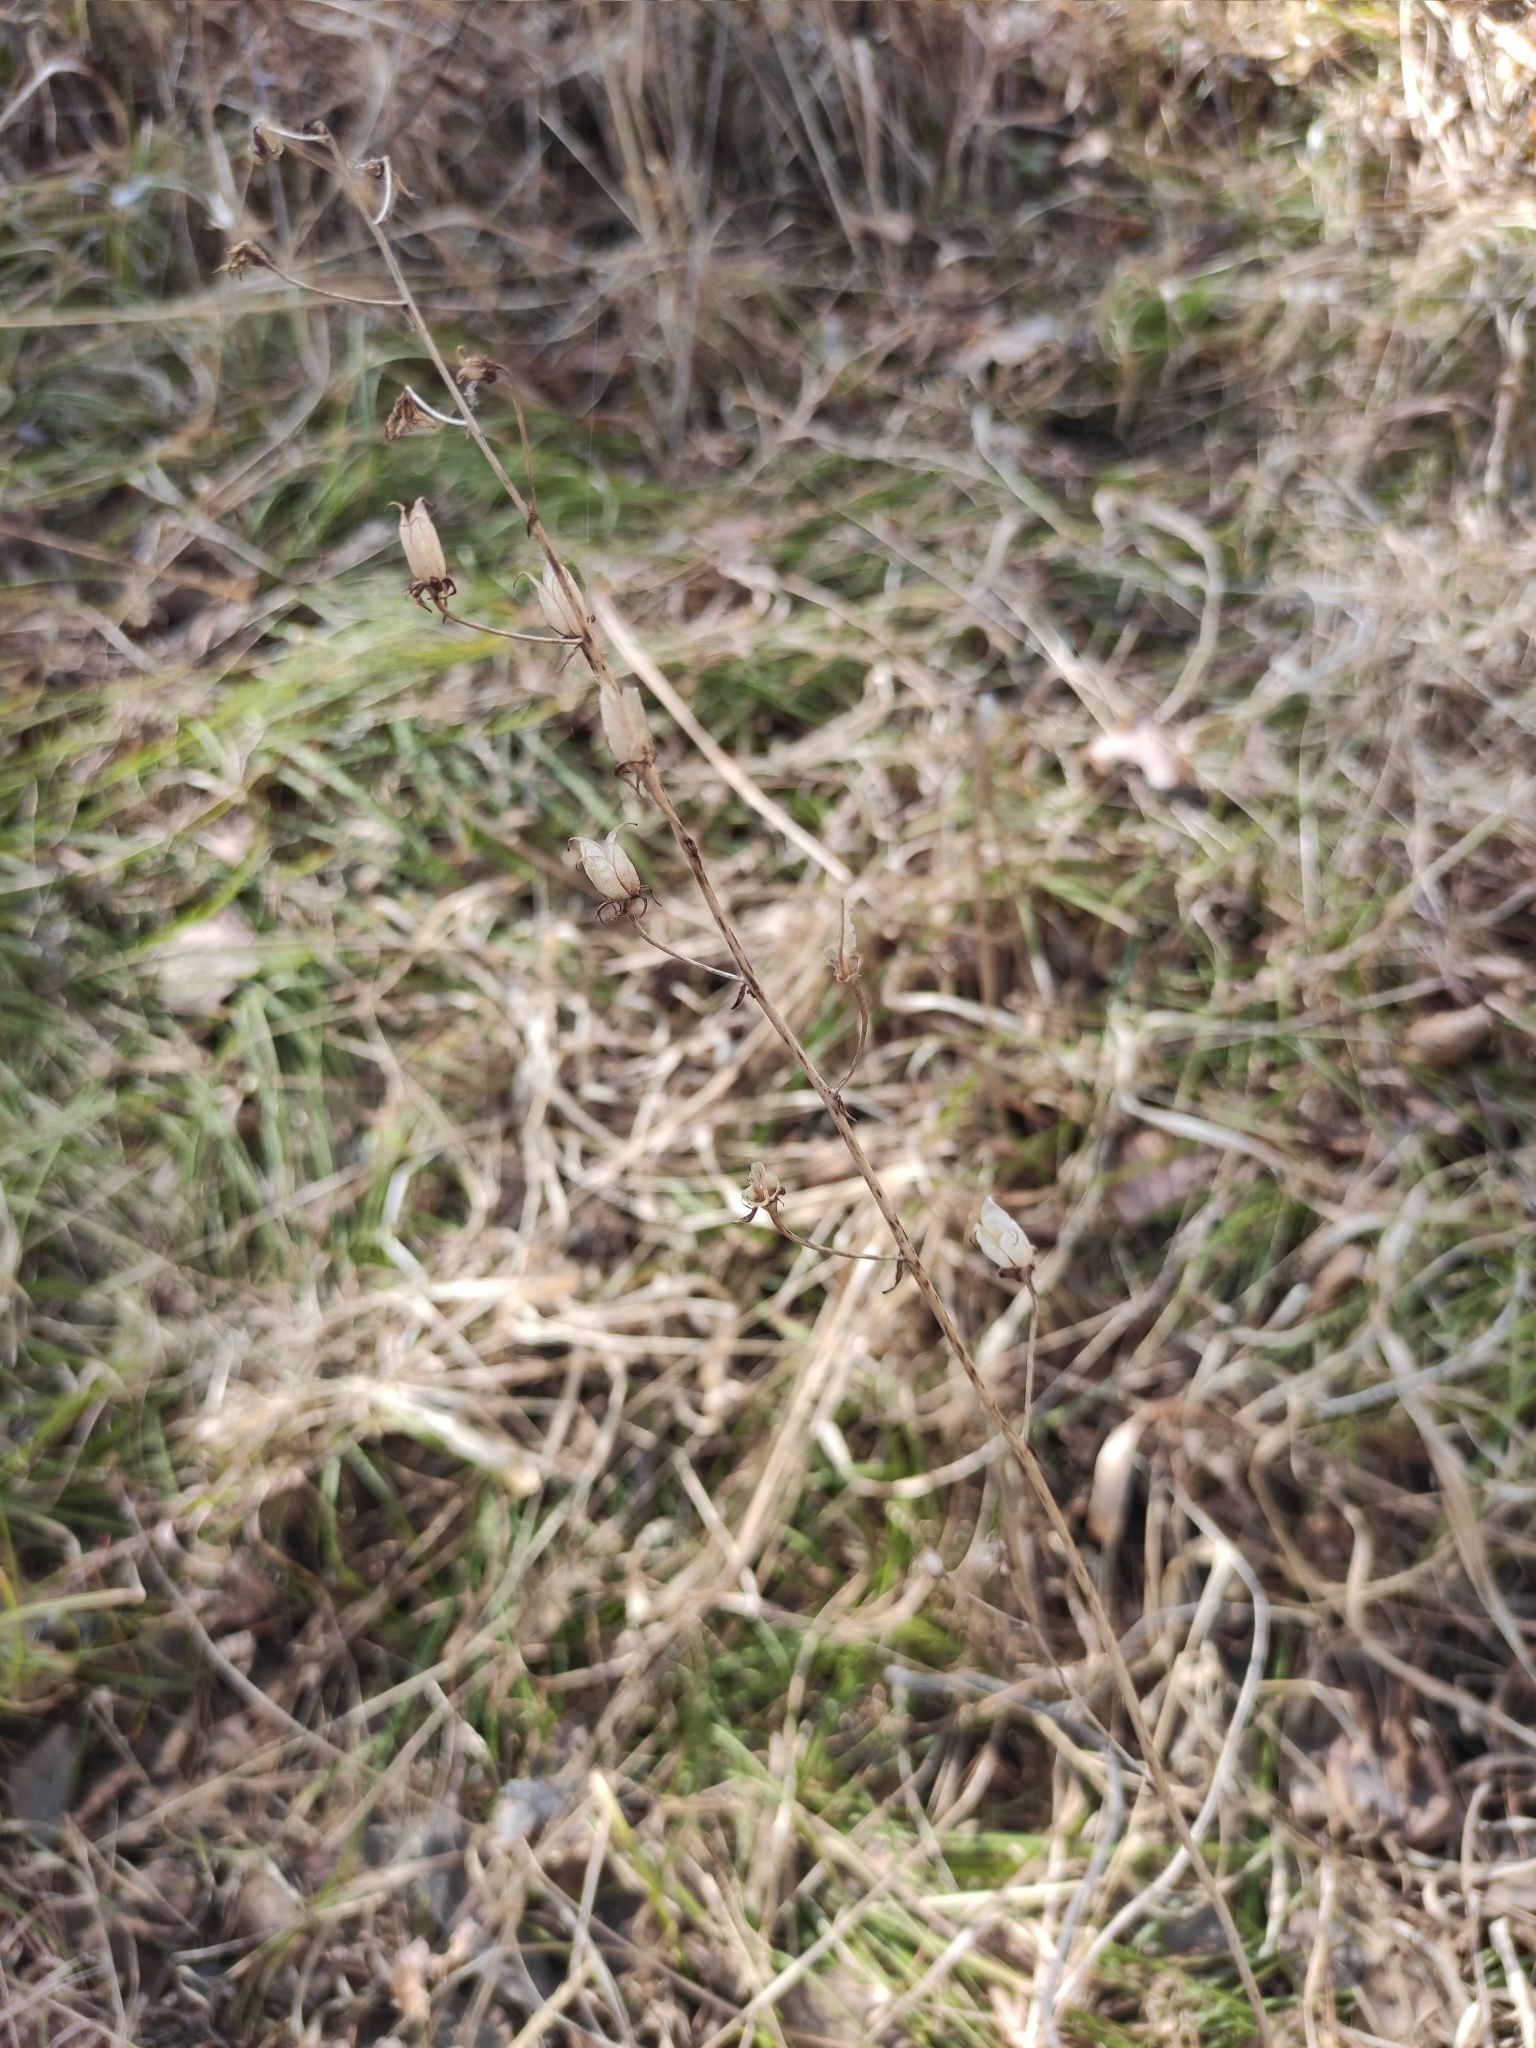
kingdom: Plantae
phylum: Tracheophyta
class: Liliopsida
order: Liliales
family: Melanthiaceae
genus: Anticlea
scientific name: Anticlea sibirica
